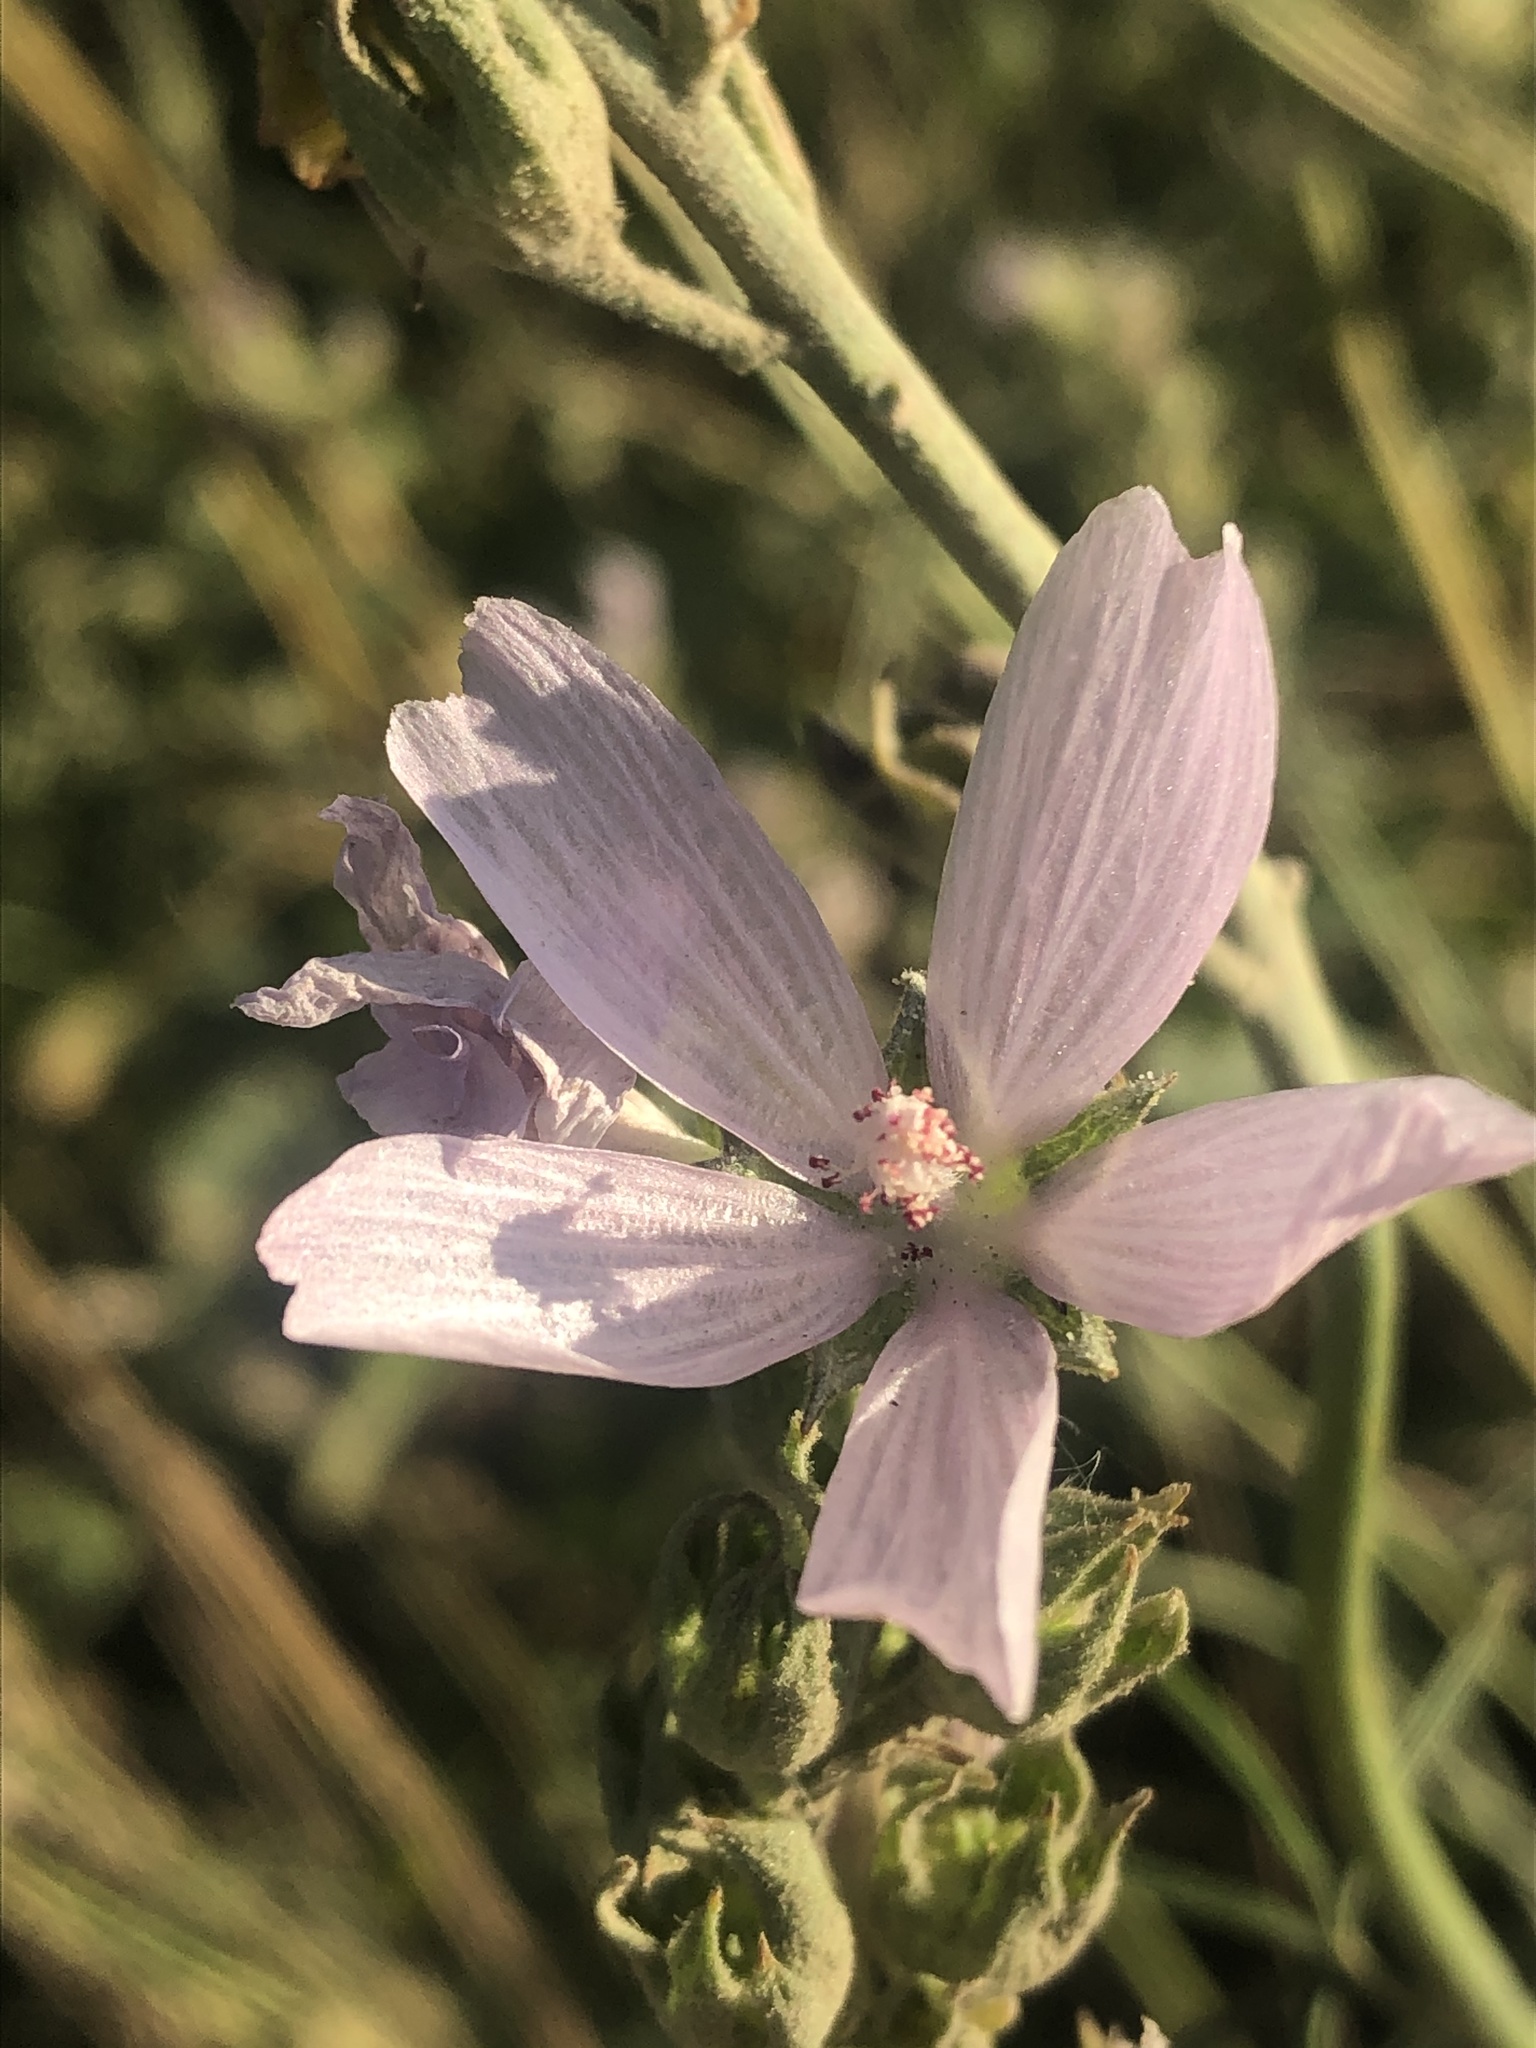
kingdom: Plantae
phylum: Tracheophyta
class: Magnoliopsida
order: Malvales
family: Malvaceae
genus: Sidalcea
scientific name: Sidalcea campestris
